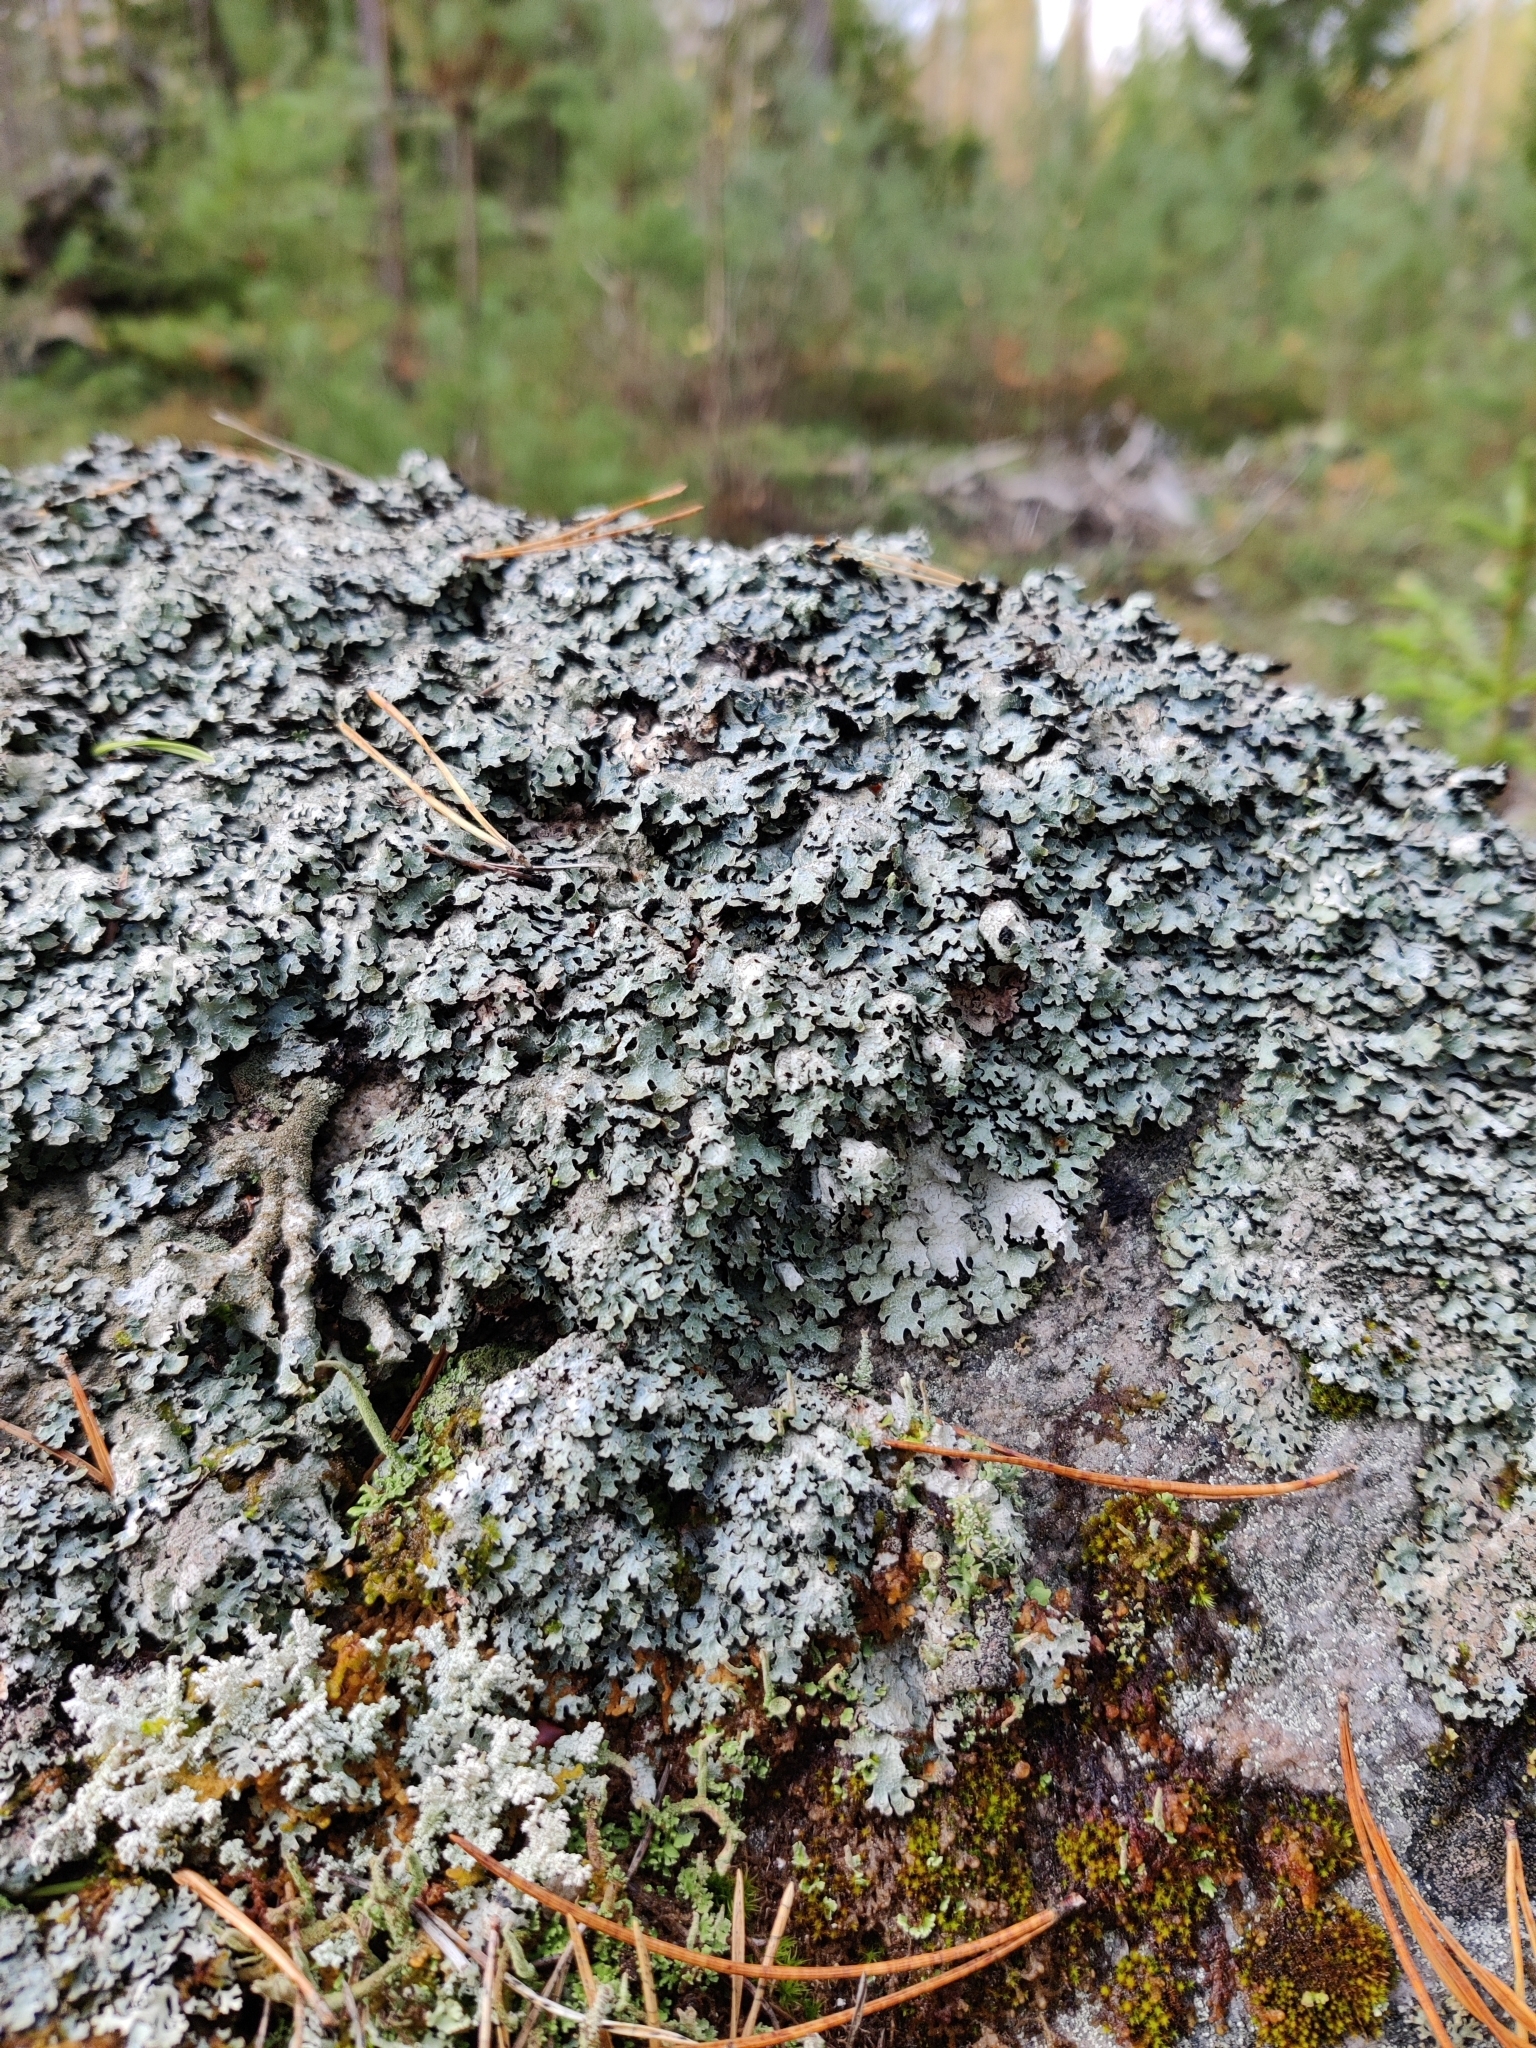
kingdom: Fungi
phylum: Ascomycota
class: Lecanoromycetes
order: Lecanorales
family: Parmeliaceae
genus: Parmelia
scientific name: Parmelia saxatilis
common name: Salted shield lichen
